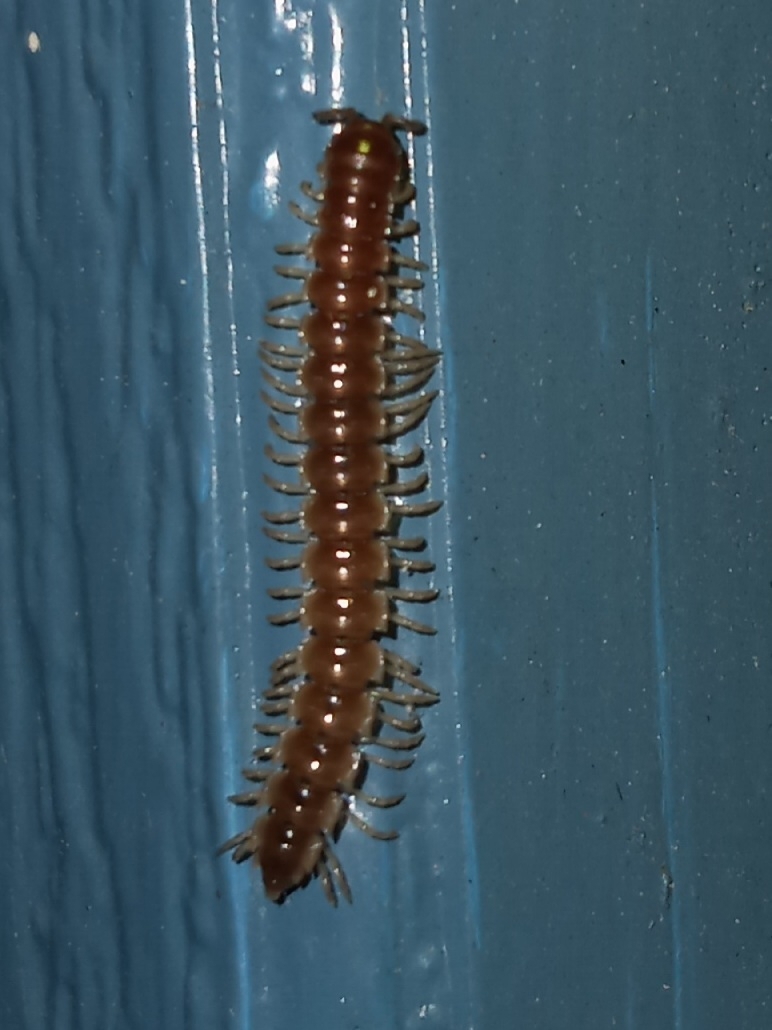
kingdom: Animalia
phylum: Arthropoda
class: Diplopoda
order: Polydesmida
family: Paradoxosomatidae
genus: Oxidus
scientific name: Oxidus gracilis
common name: Greenhouse millipede
